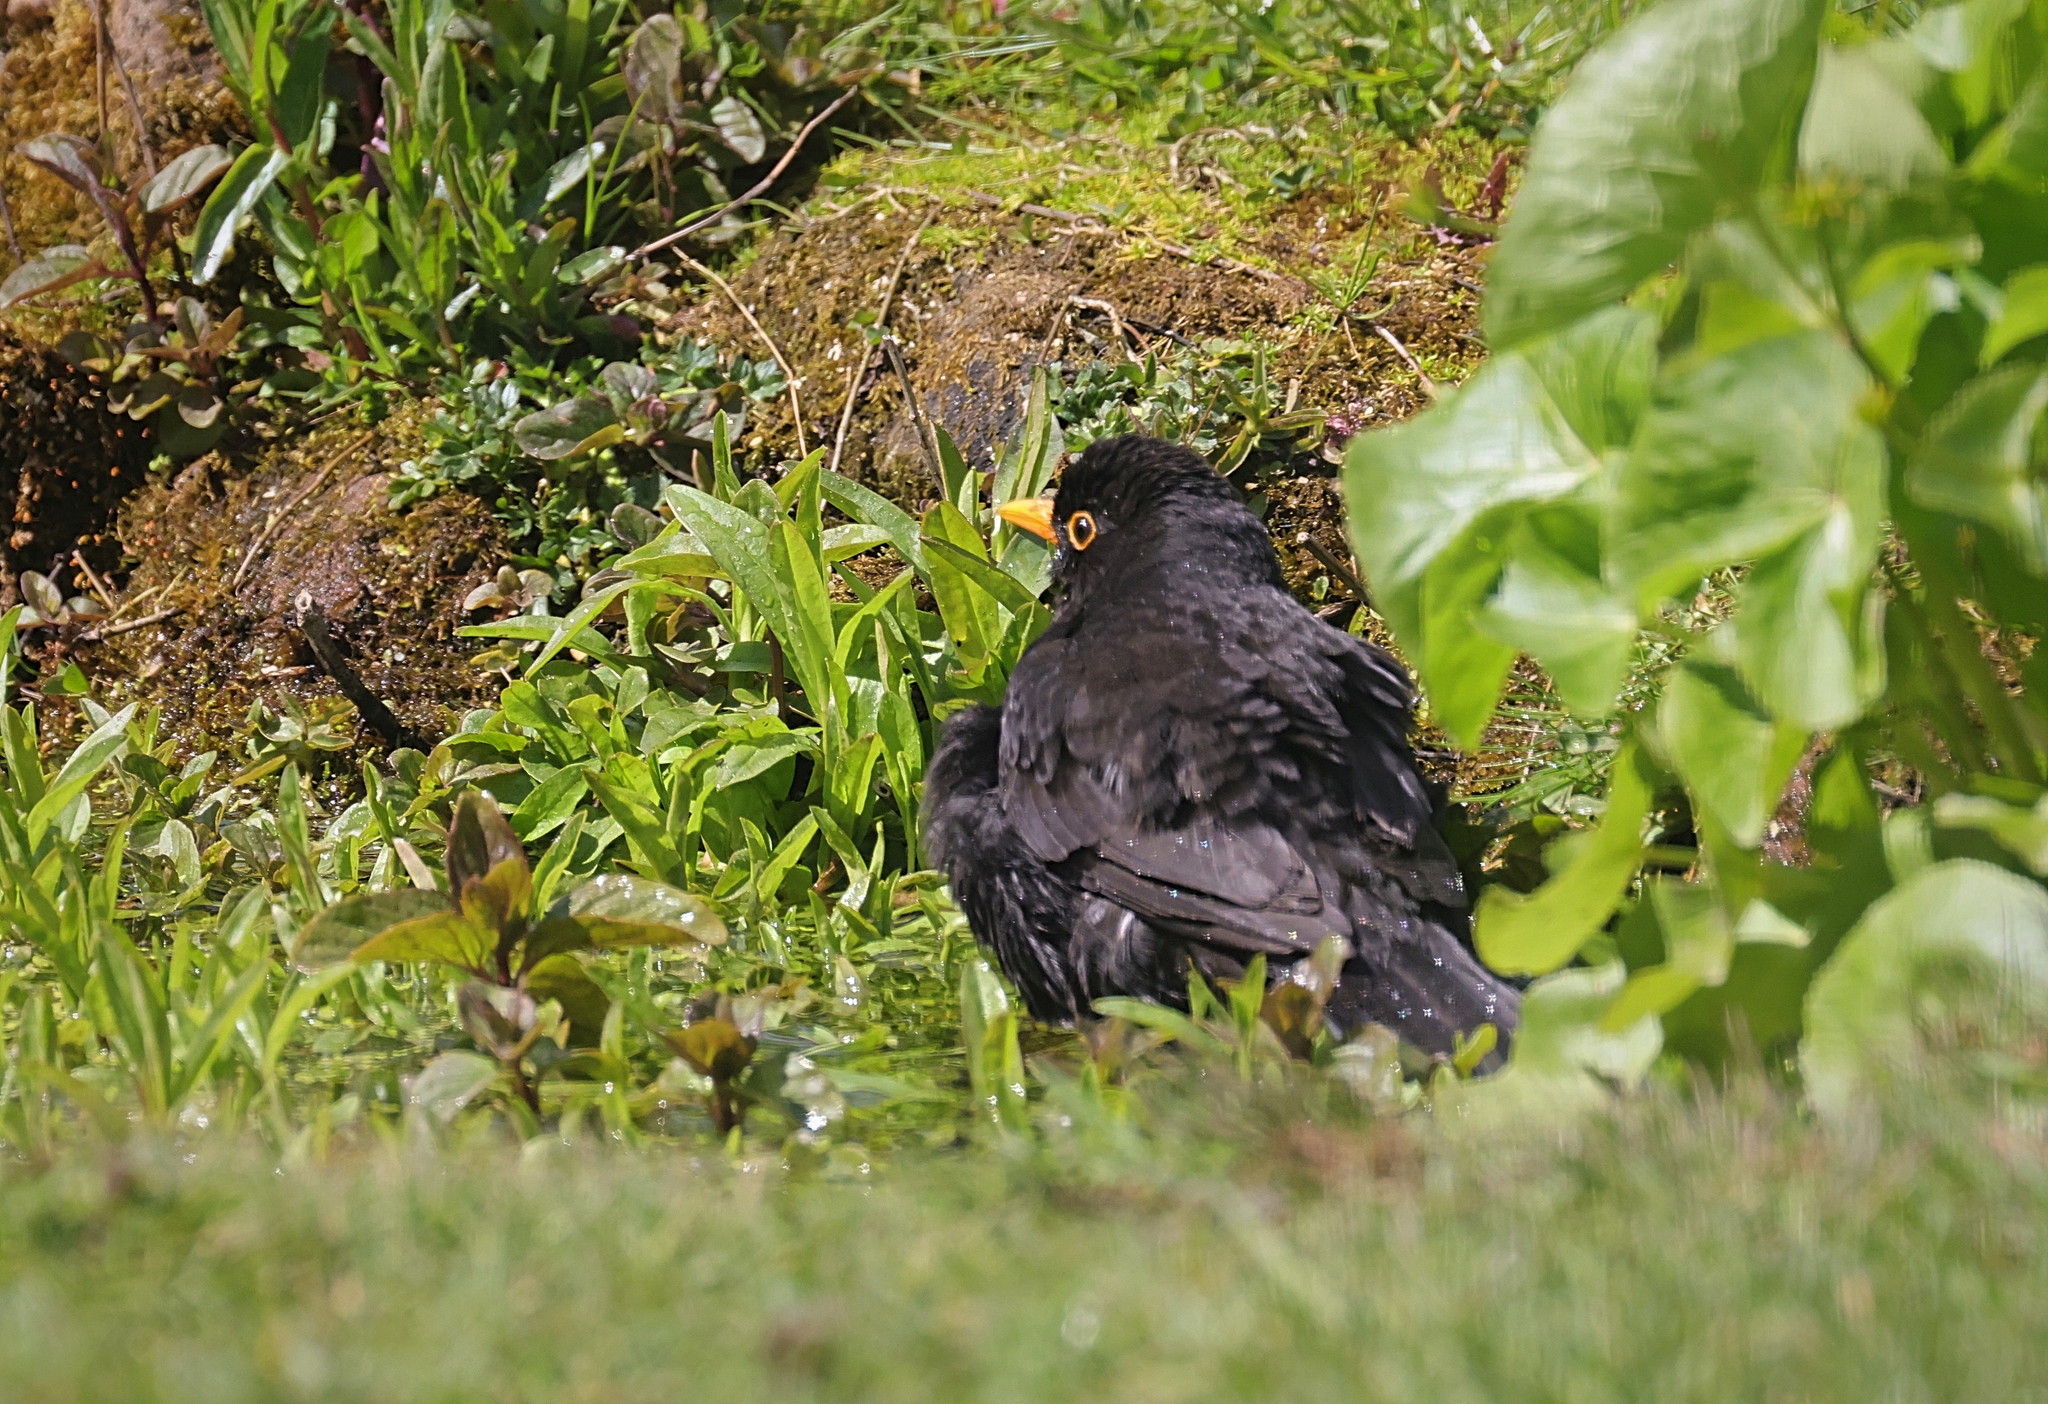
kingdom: Animalia
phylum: Chordata
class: Aves
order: Passeriformes
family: Turdidae
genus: Turdus
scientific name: Turdus merula
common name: Common blackbird
